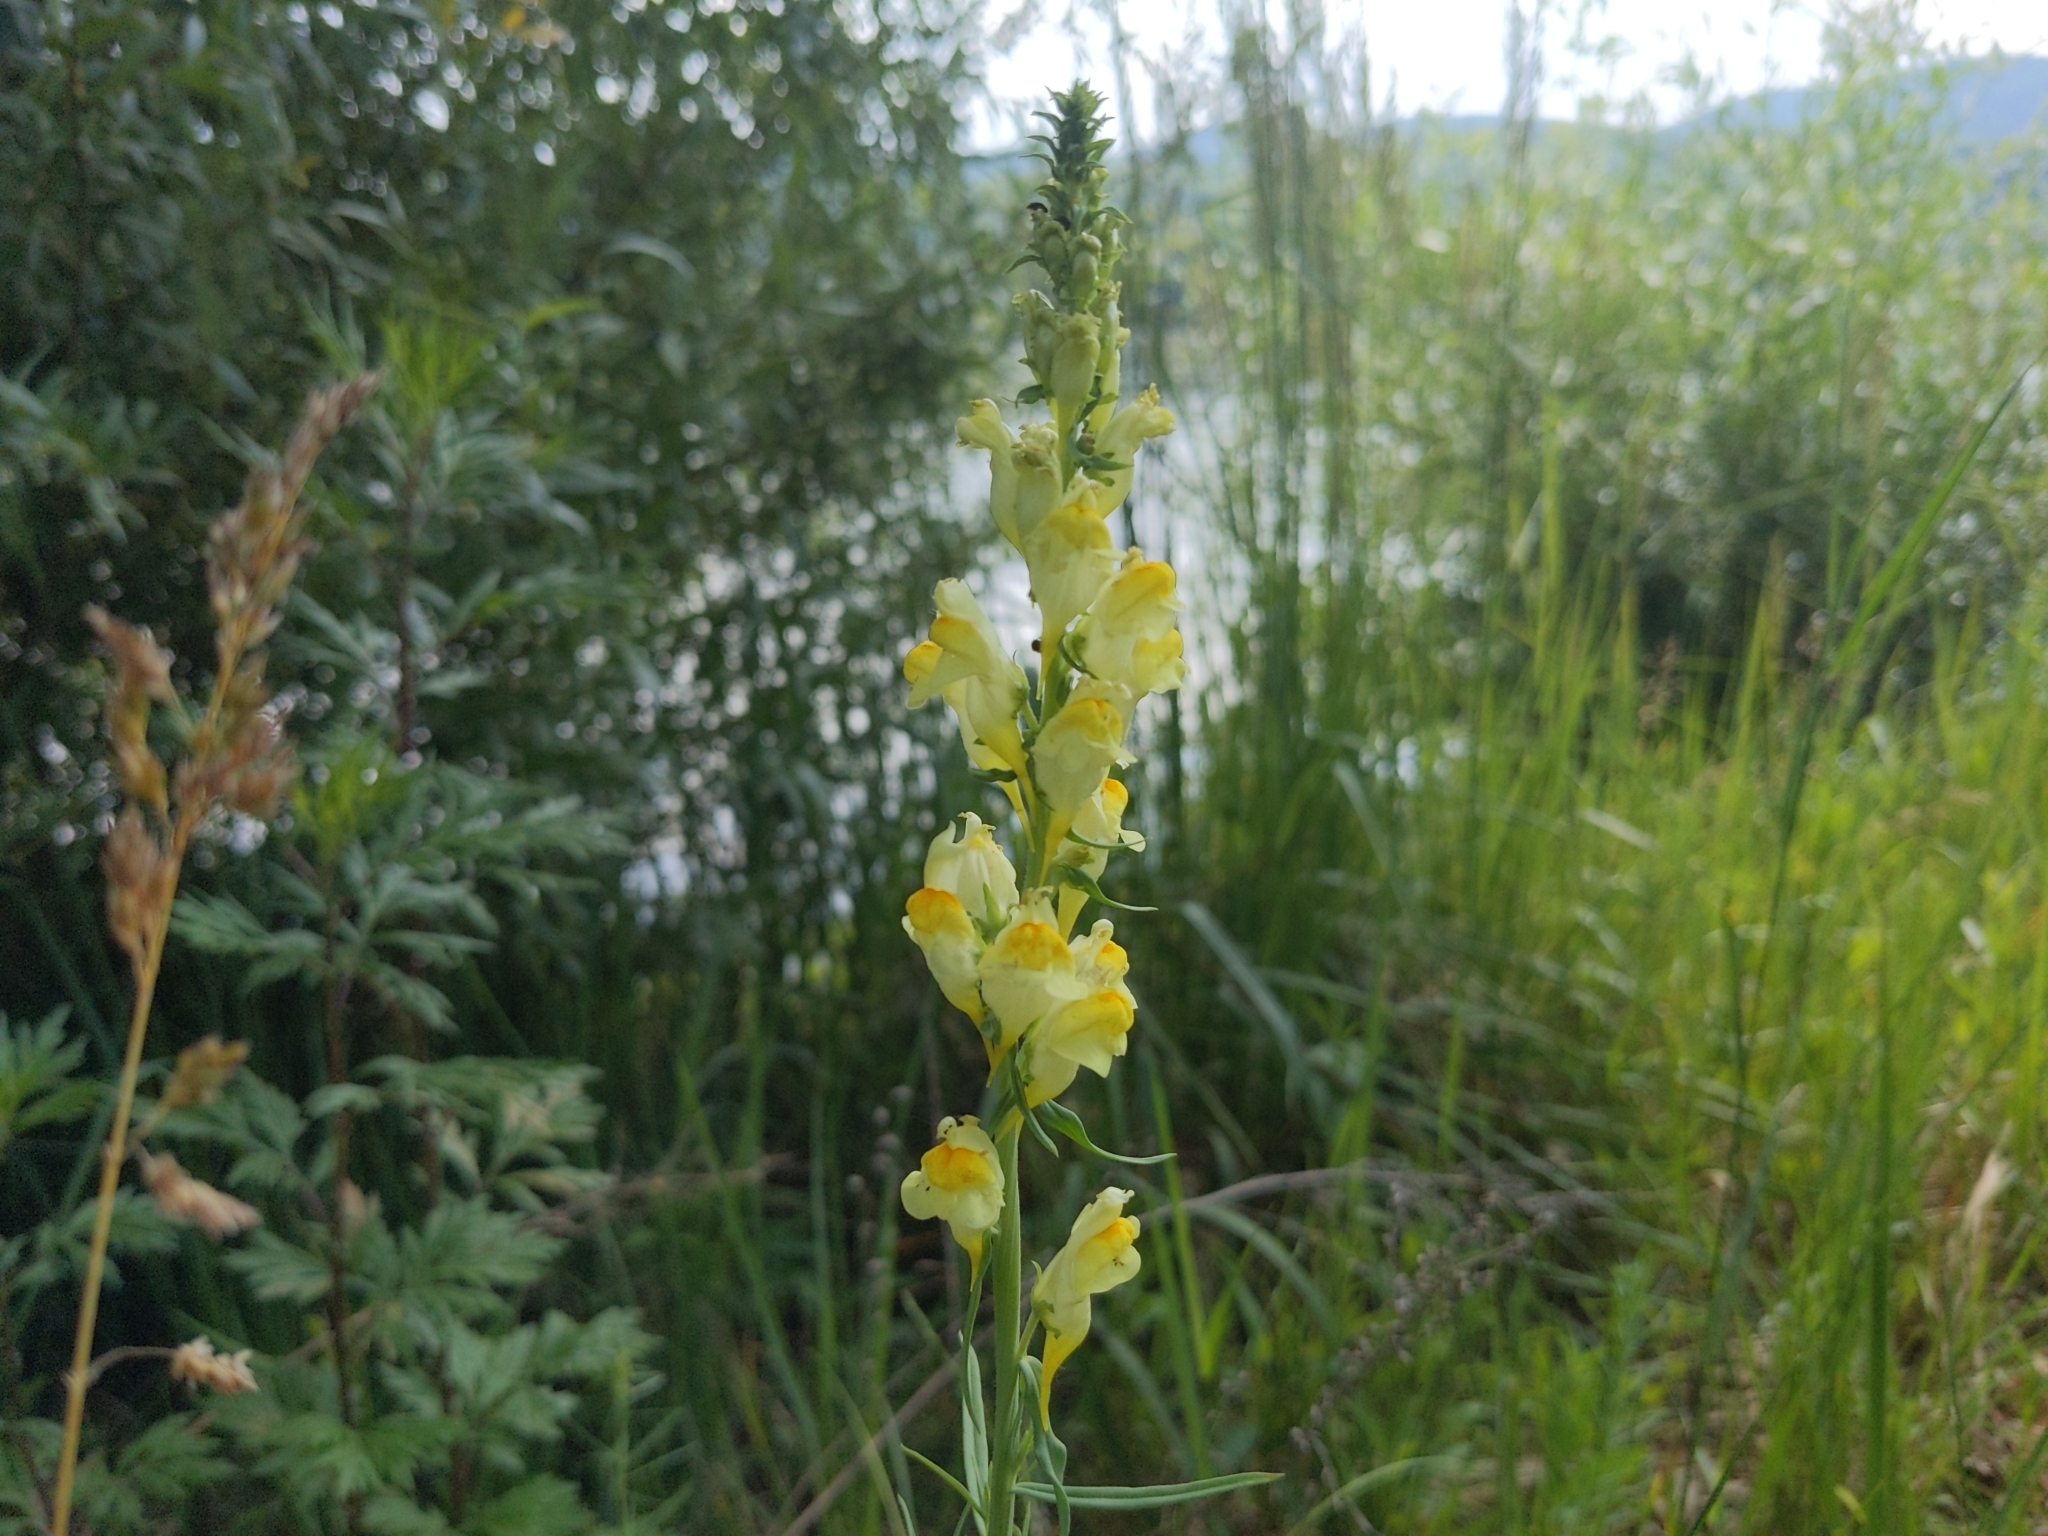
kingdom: Plantae
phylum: Tracheophyta
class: Magnoliopsida
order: Lamiales
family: Plantaginaceae
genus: Linaria
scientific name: Linaria vulgaris
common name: Butter and eggs
